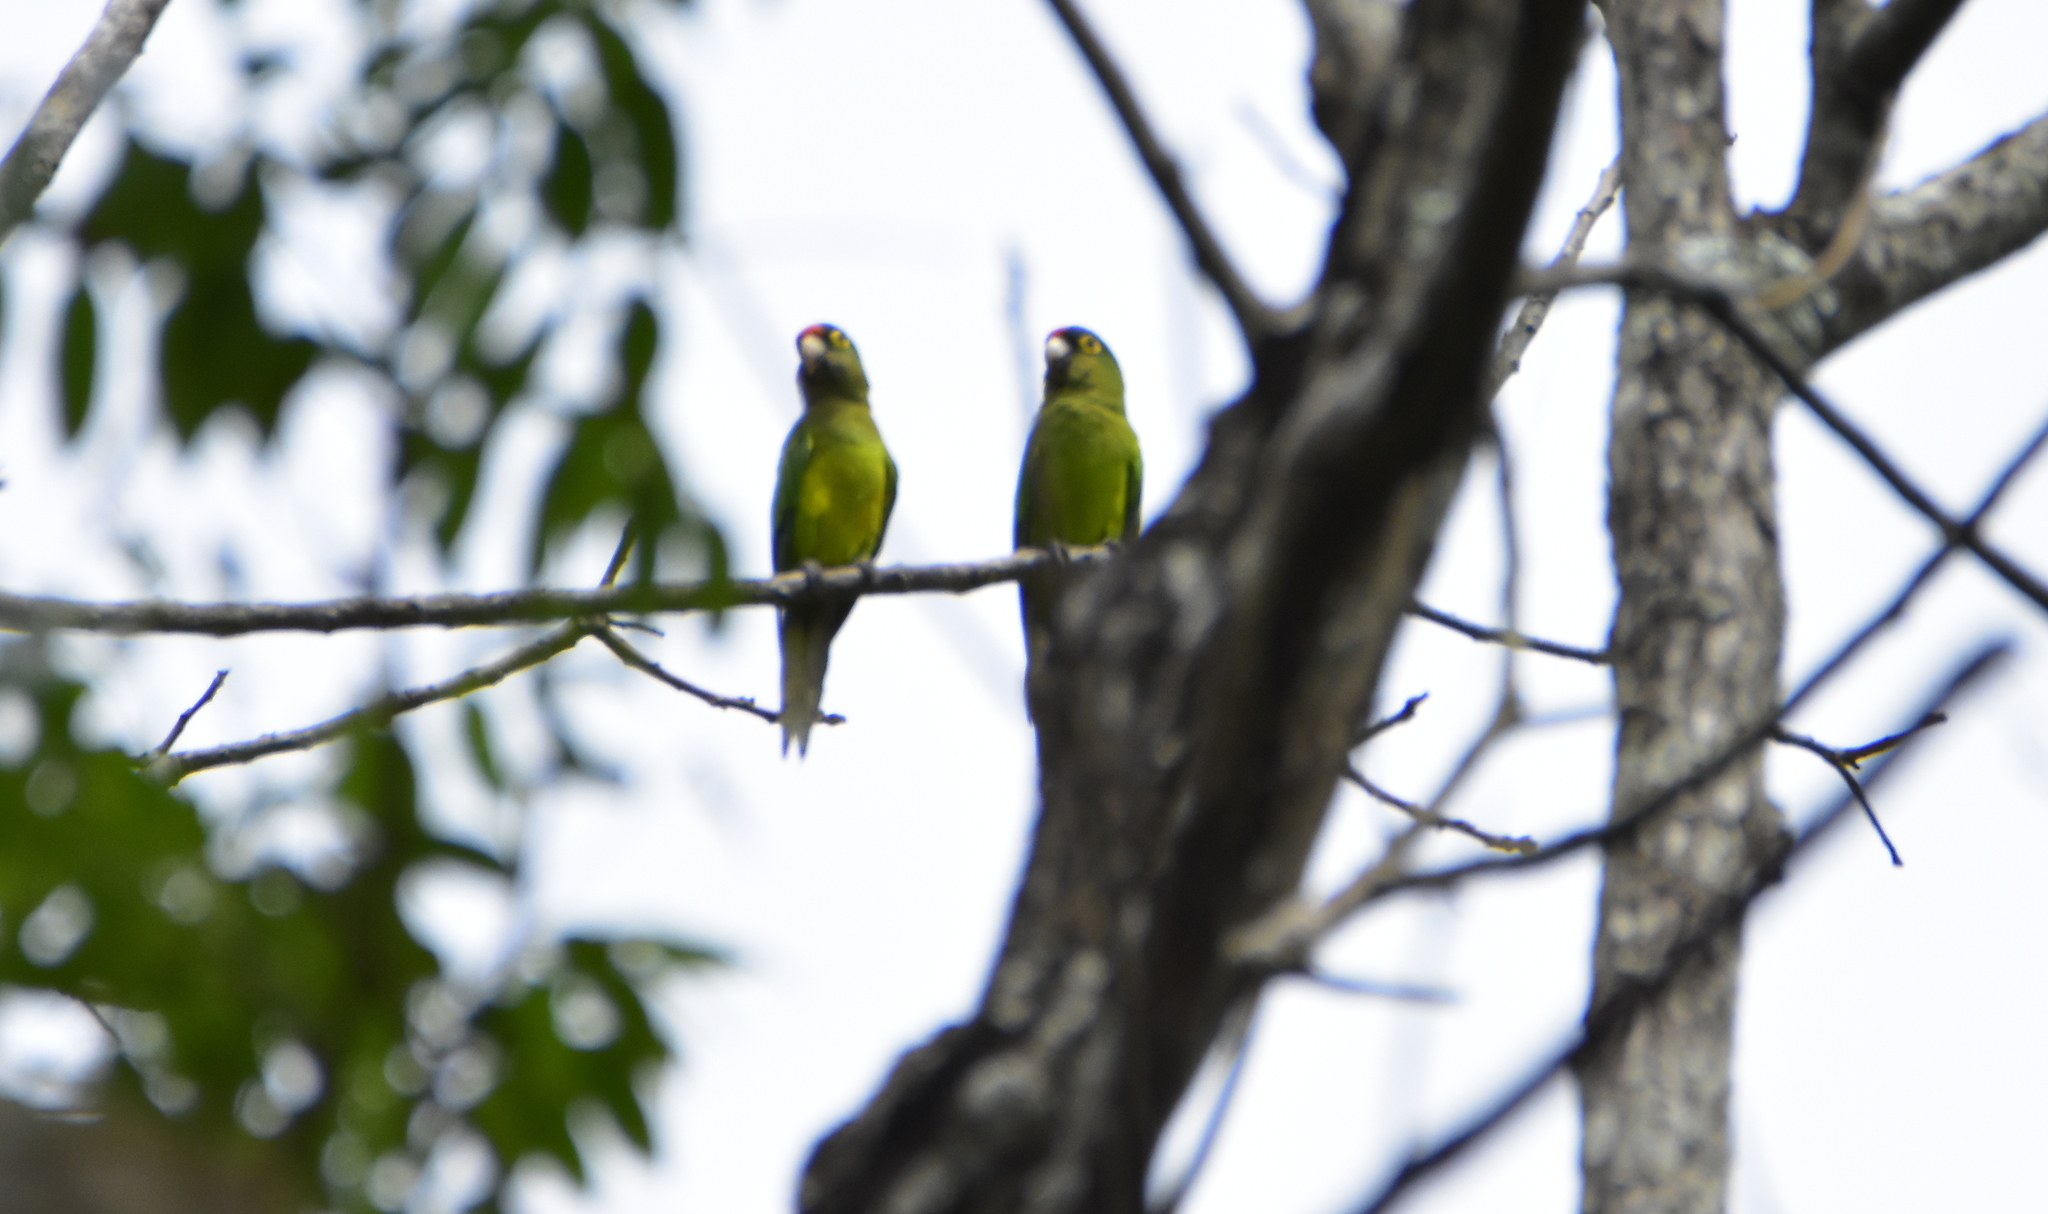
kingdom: Animalia
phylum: Chordata
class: Aves
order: Psittaciformes
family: Psittacidae
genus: Aratinga
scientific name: Aratinga canicularis
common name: Orange-fronted parakeet
